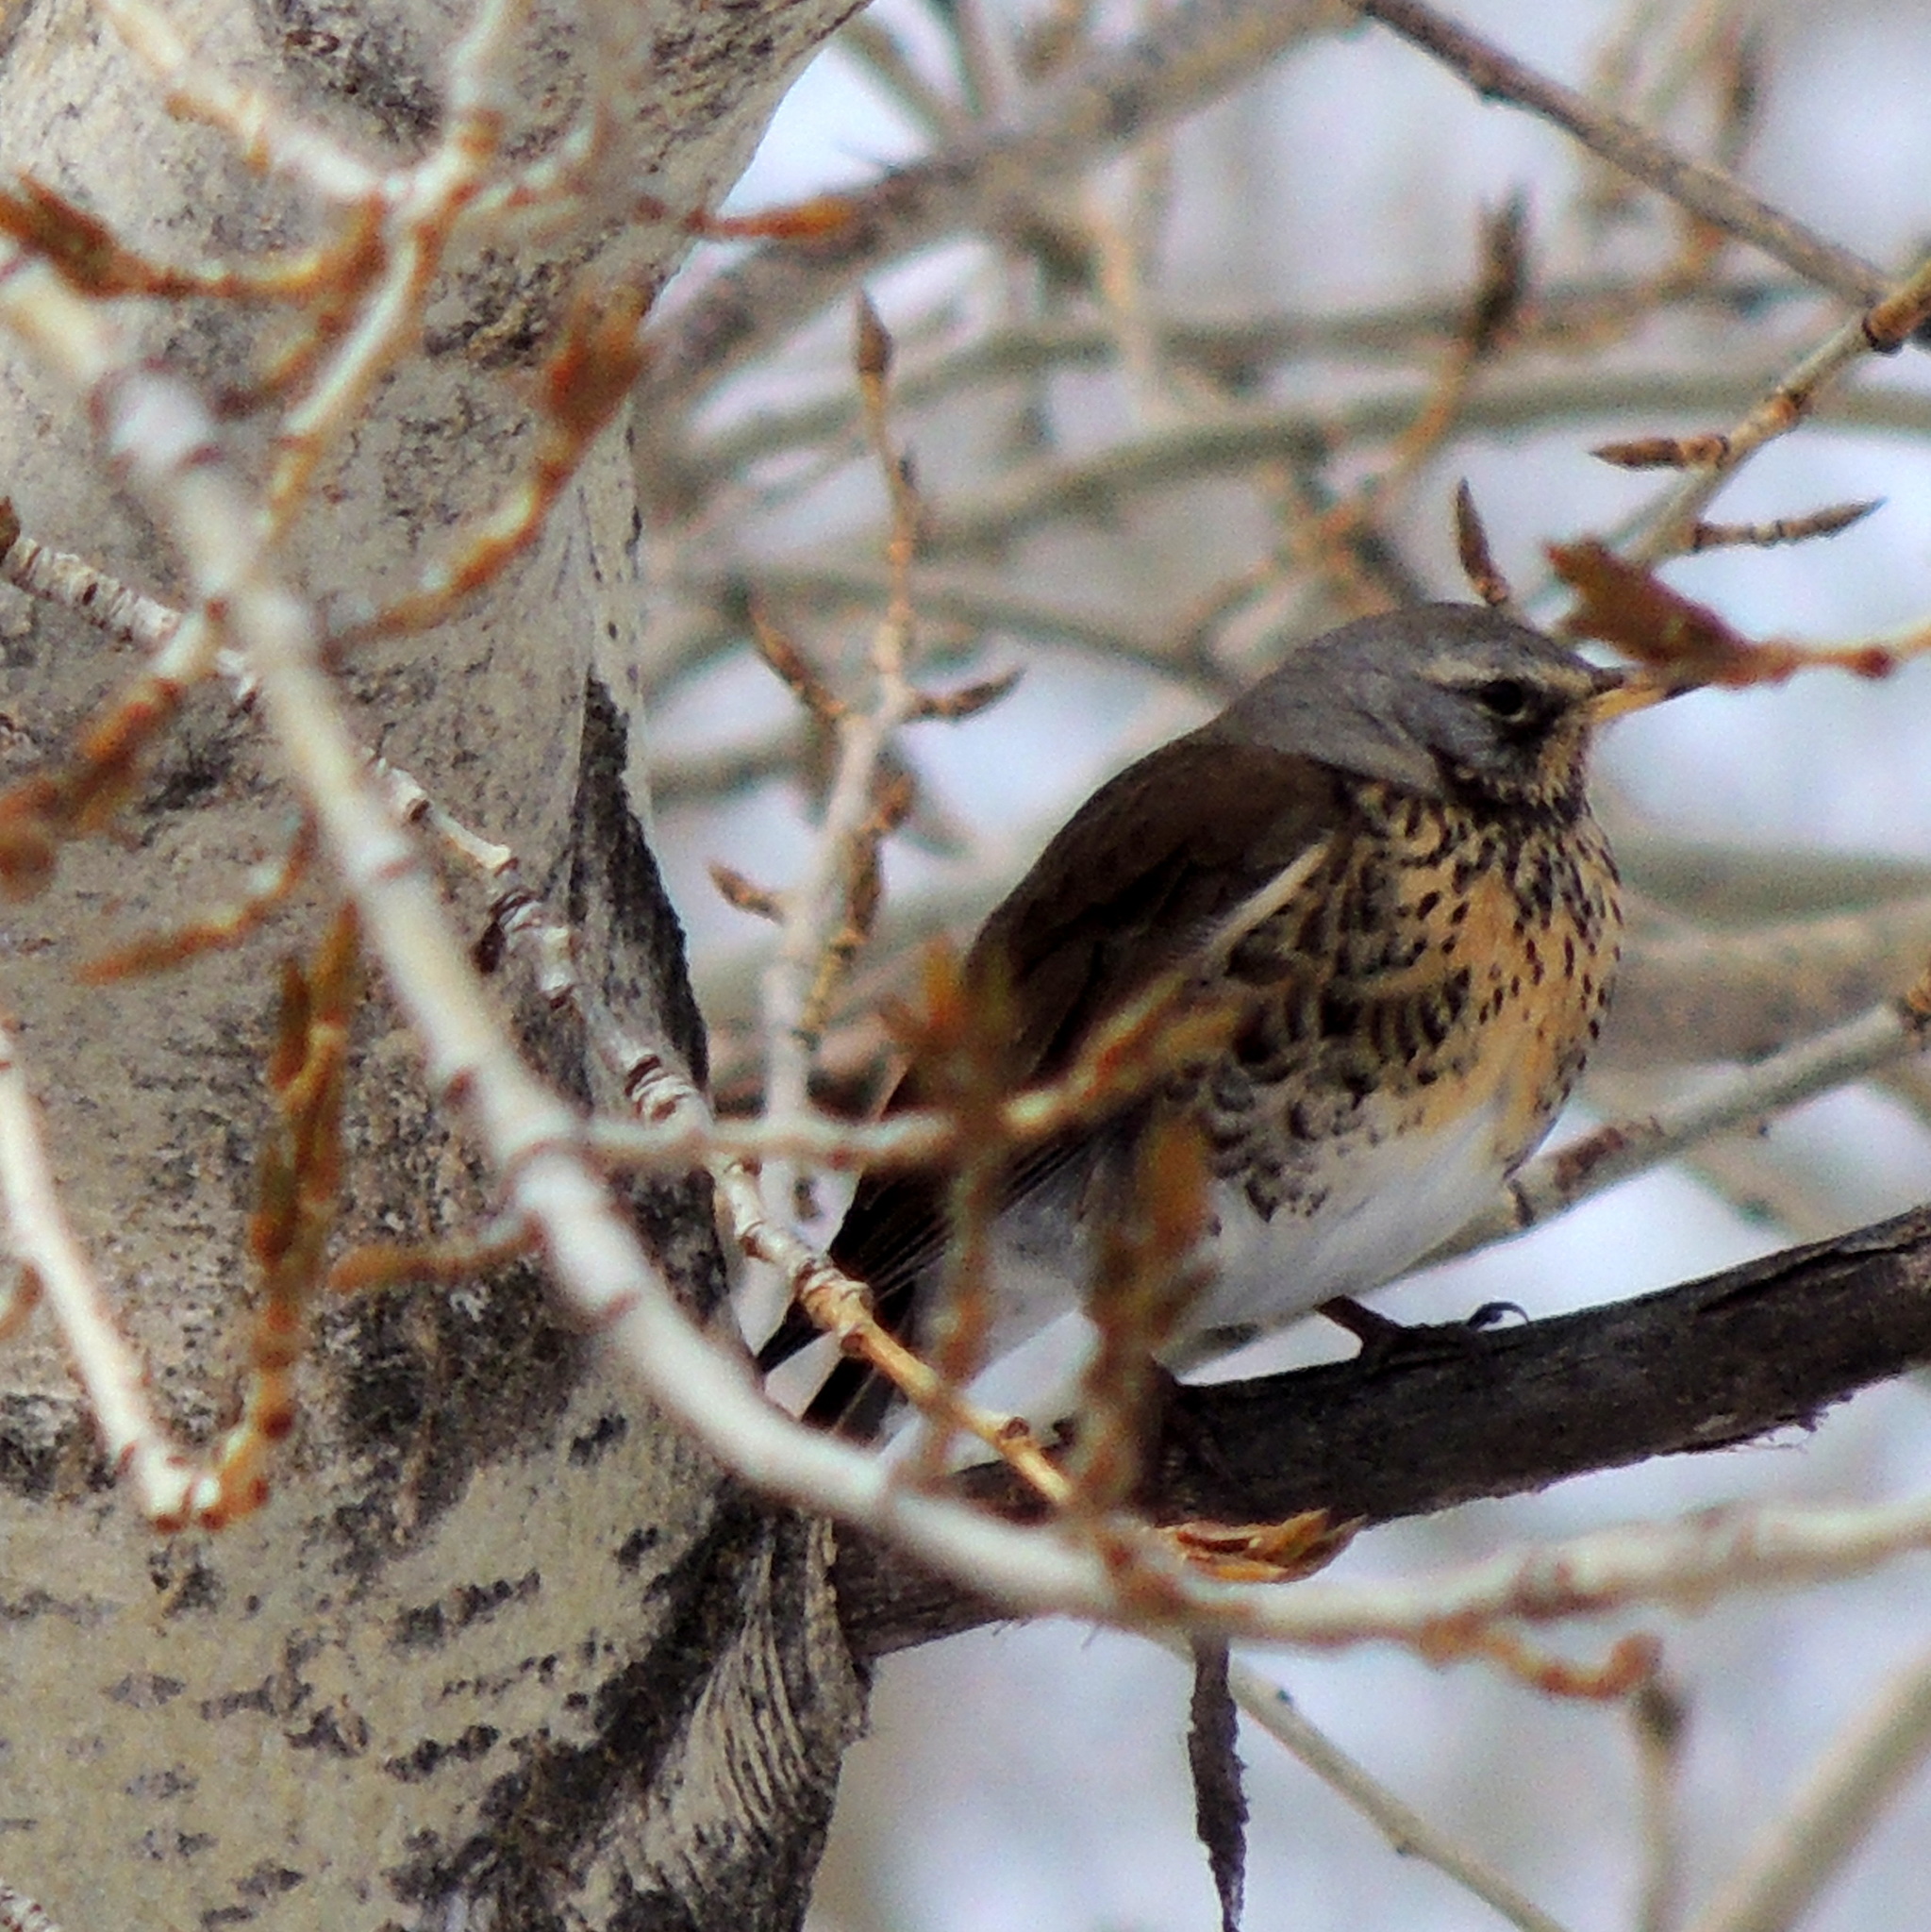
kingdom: Animalia
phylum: Chordata
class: Aves
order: Passeriformes
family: Turdidae
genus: Turdus
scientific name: Turdus pilaris
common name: Fieldfare
